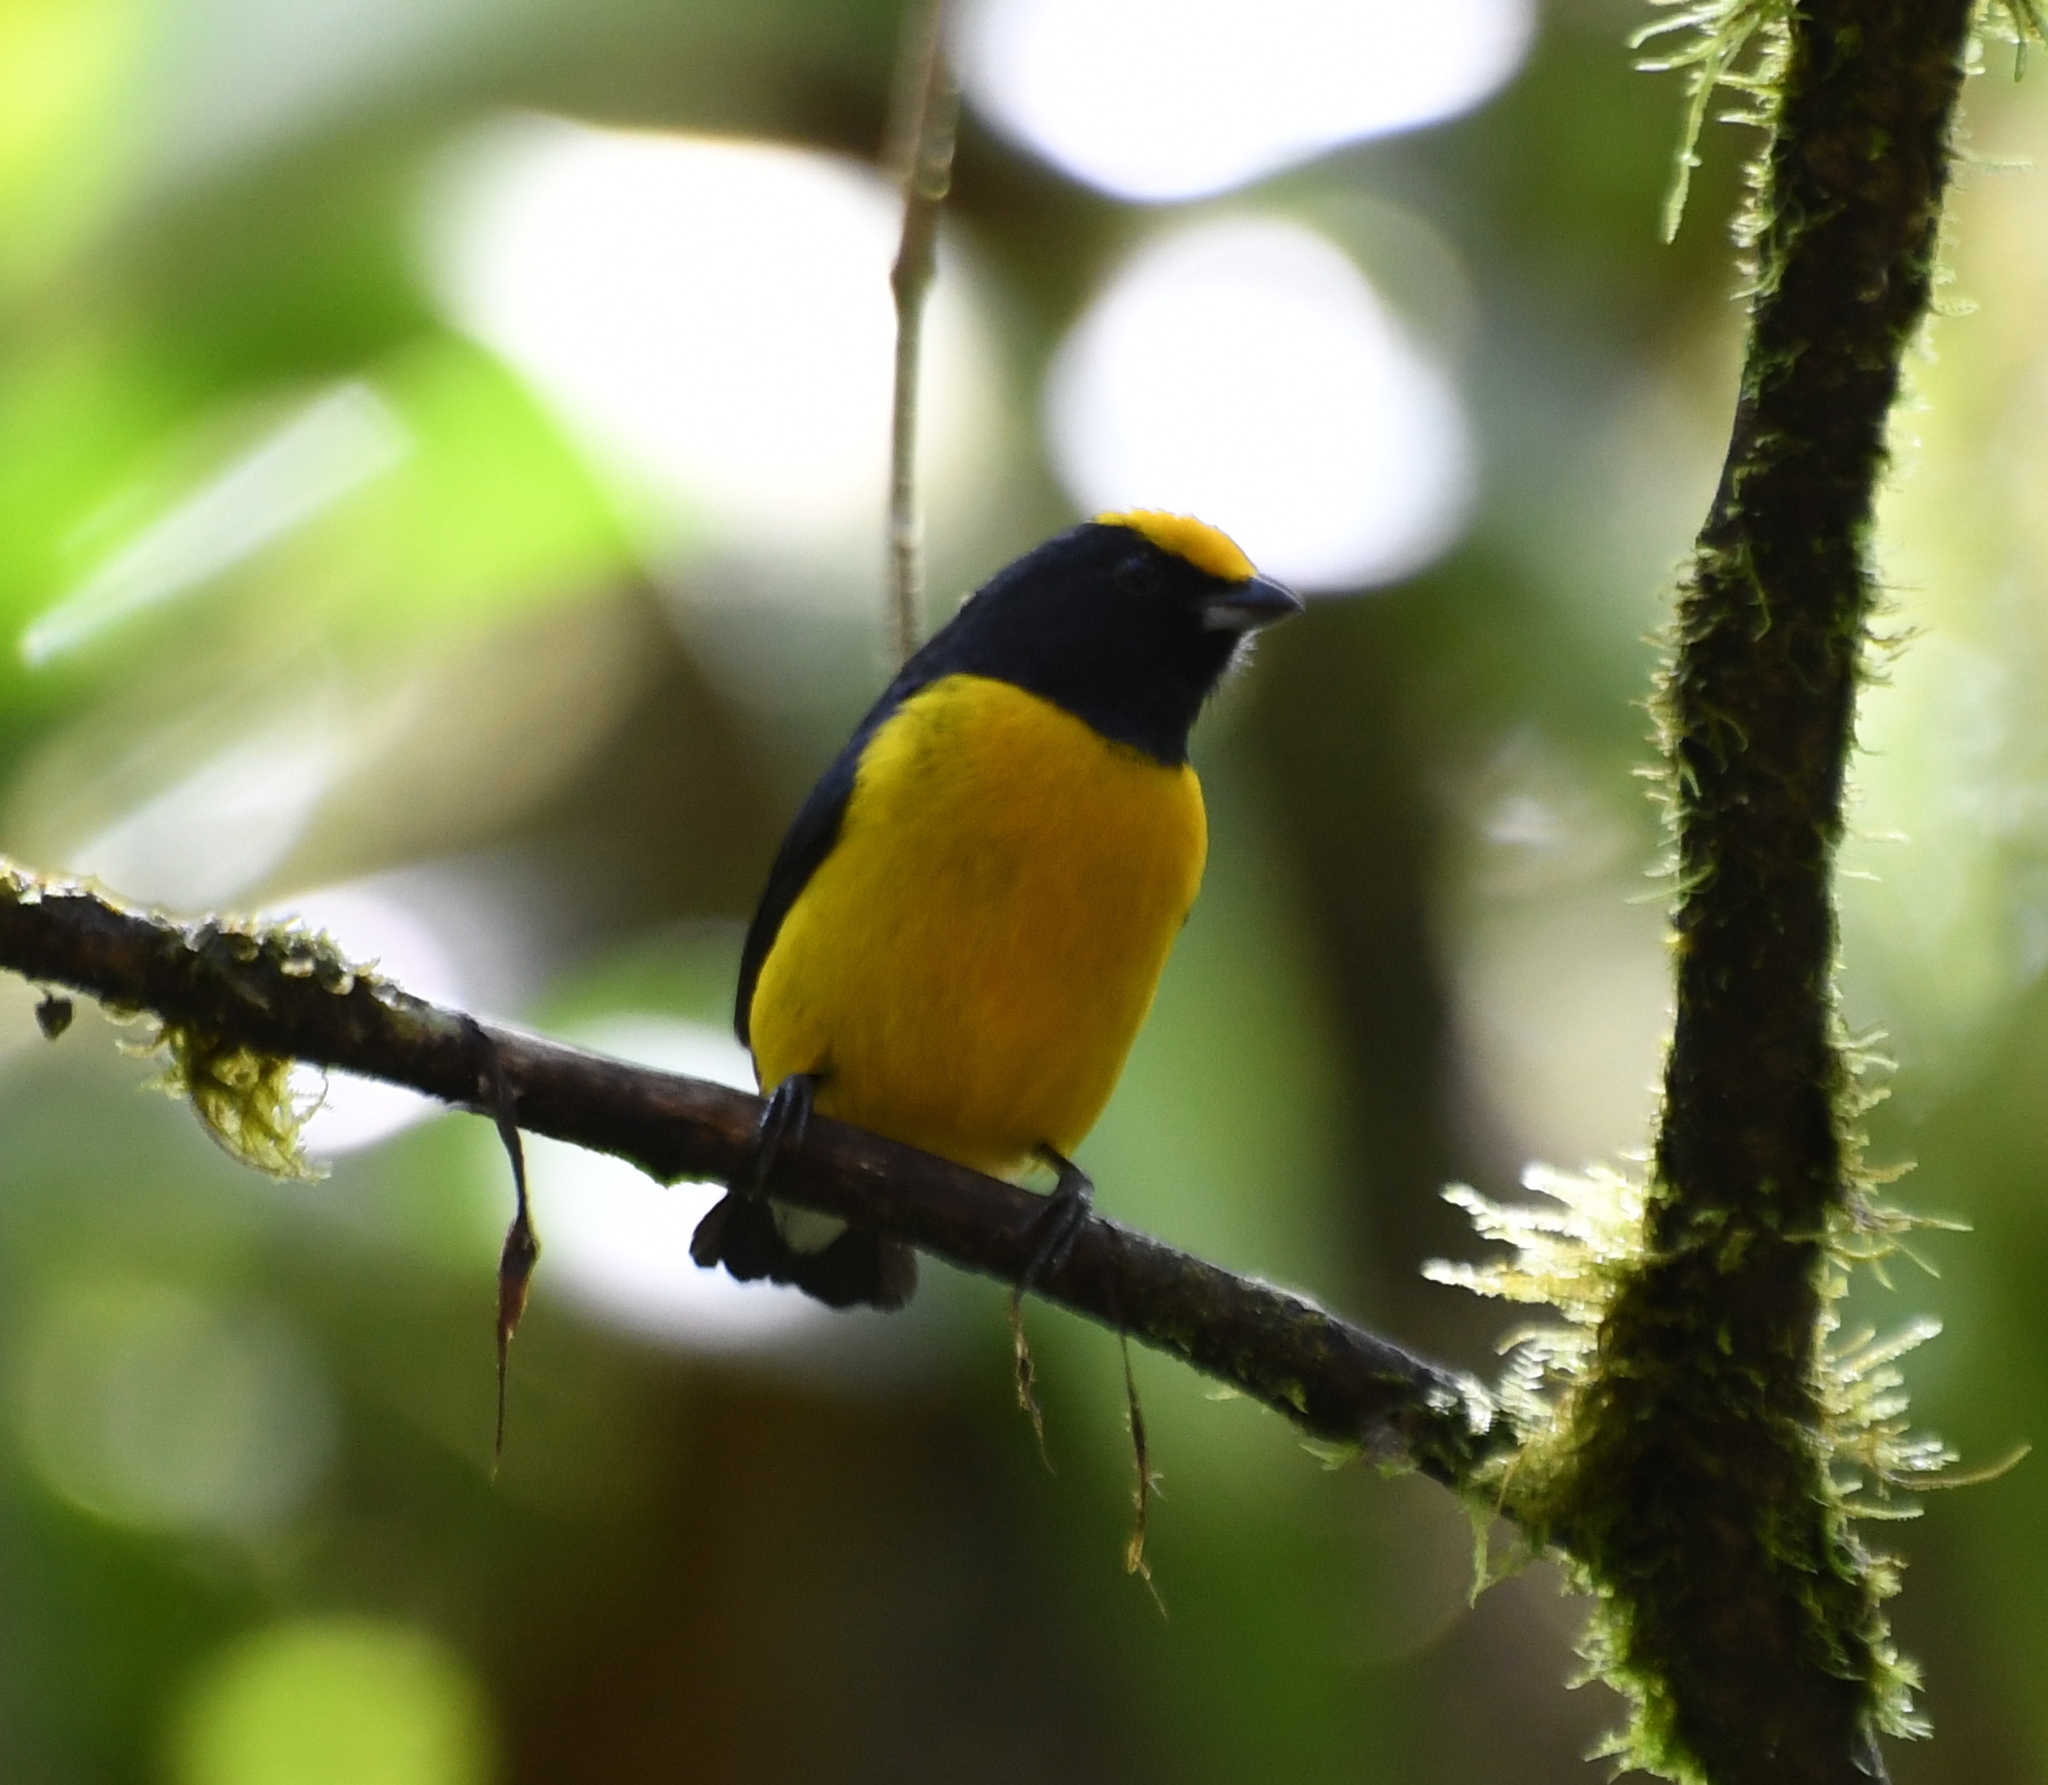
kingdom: Animalia
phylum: Chordata
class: Aves
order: Passeriformes
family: Fringillidae
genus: Euphonia
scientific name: Euphonia xanthogaster
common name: Orange-bellied euphonia
